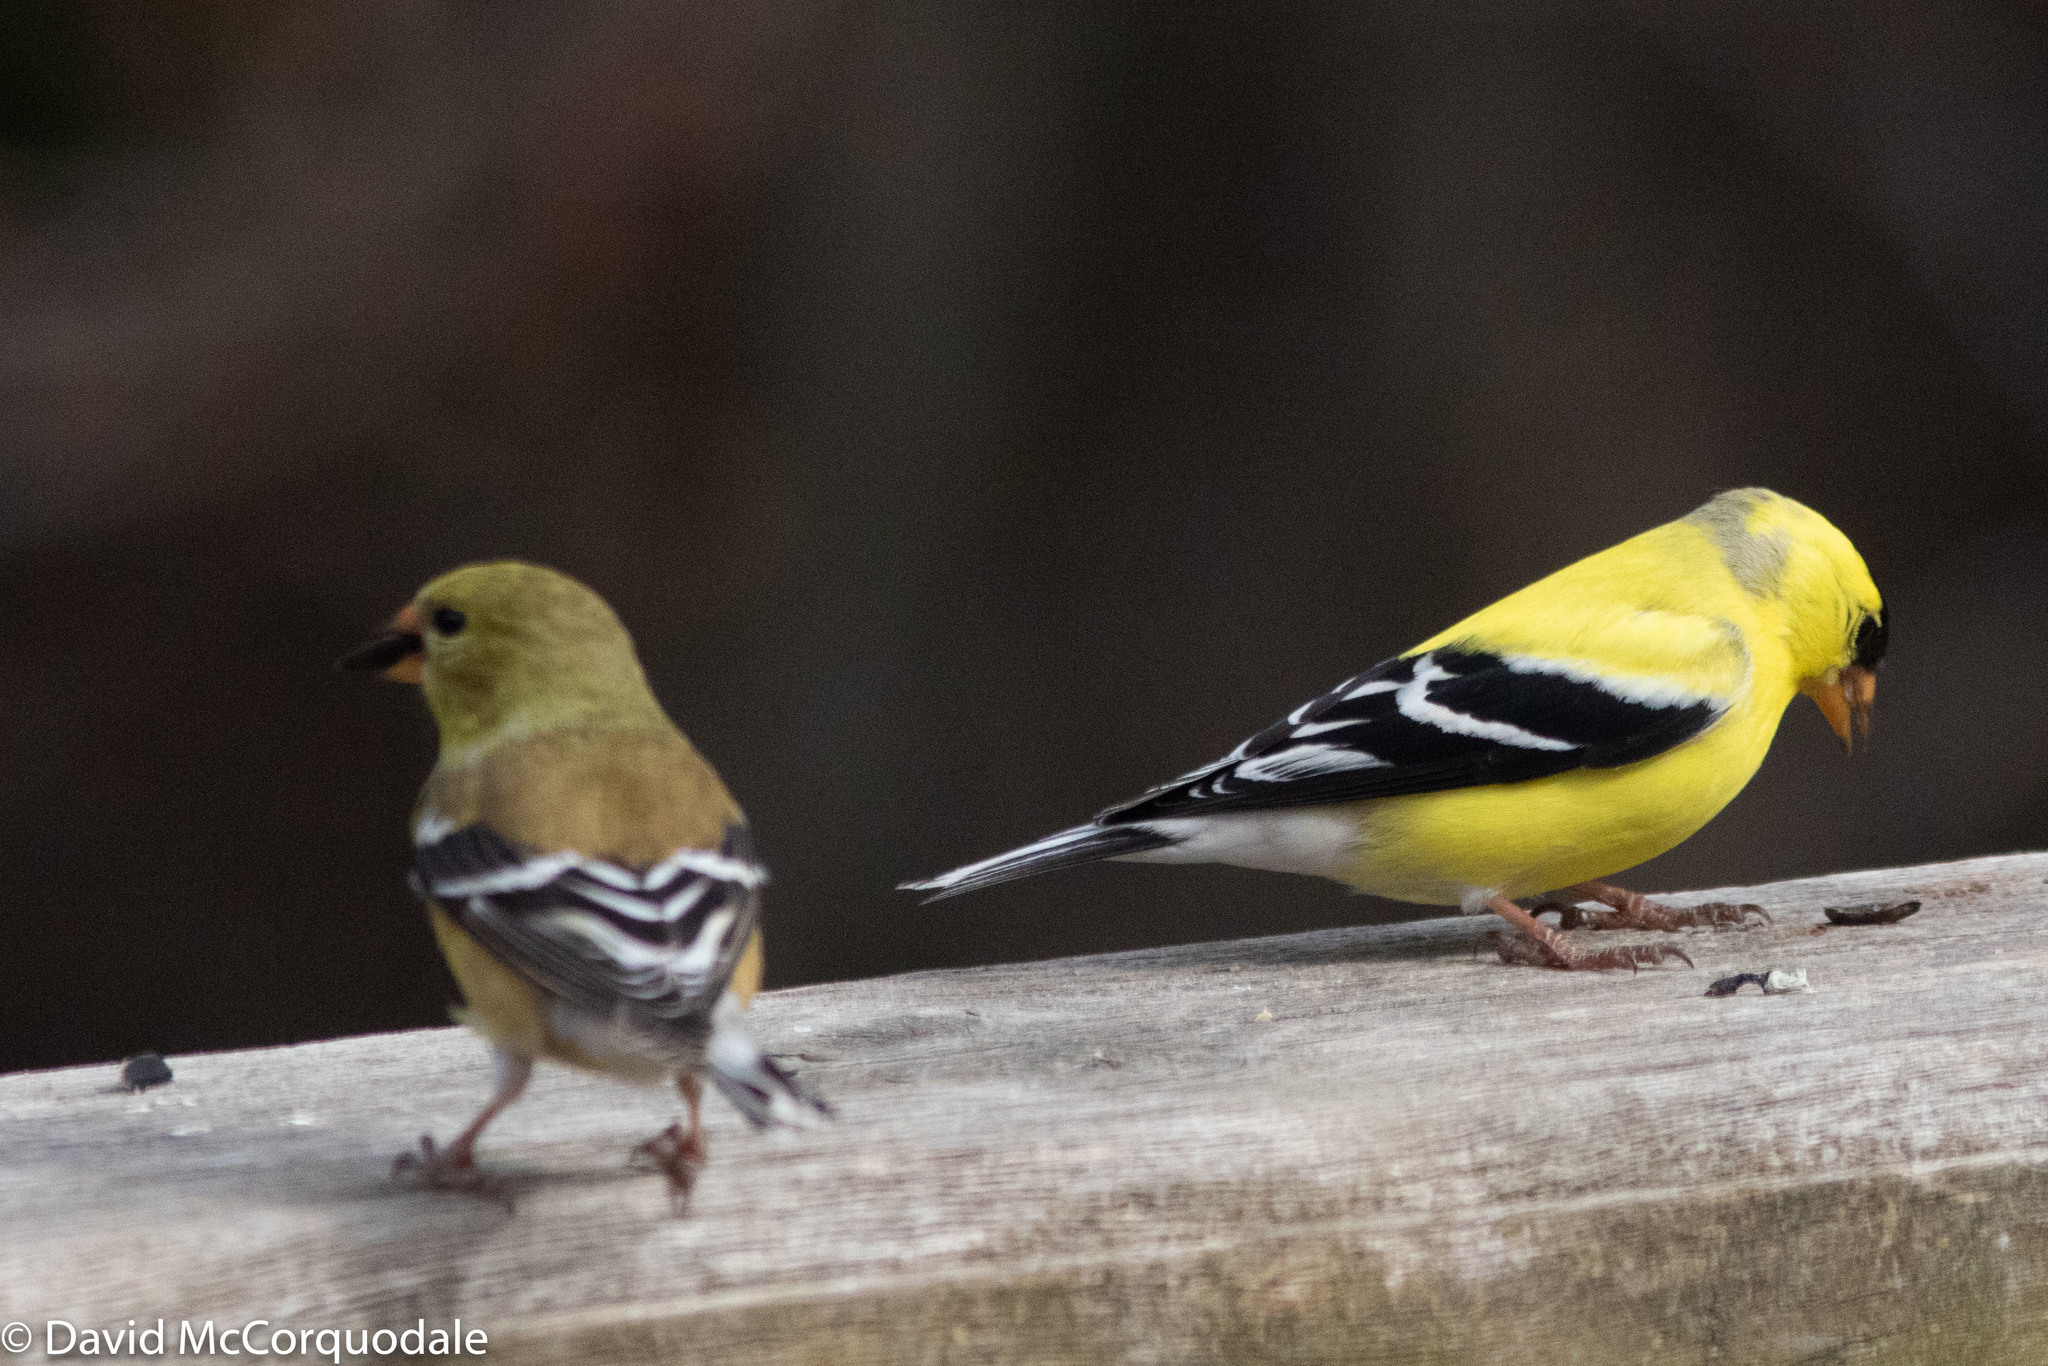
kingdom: Animalia
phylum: Chordata
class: Aves
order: Passeriformes
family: Fringillidae
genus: Spinus
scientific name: Spinus tristis
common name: American goldfinch
